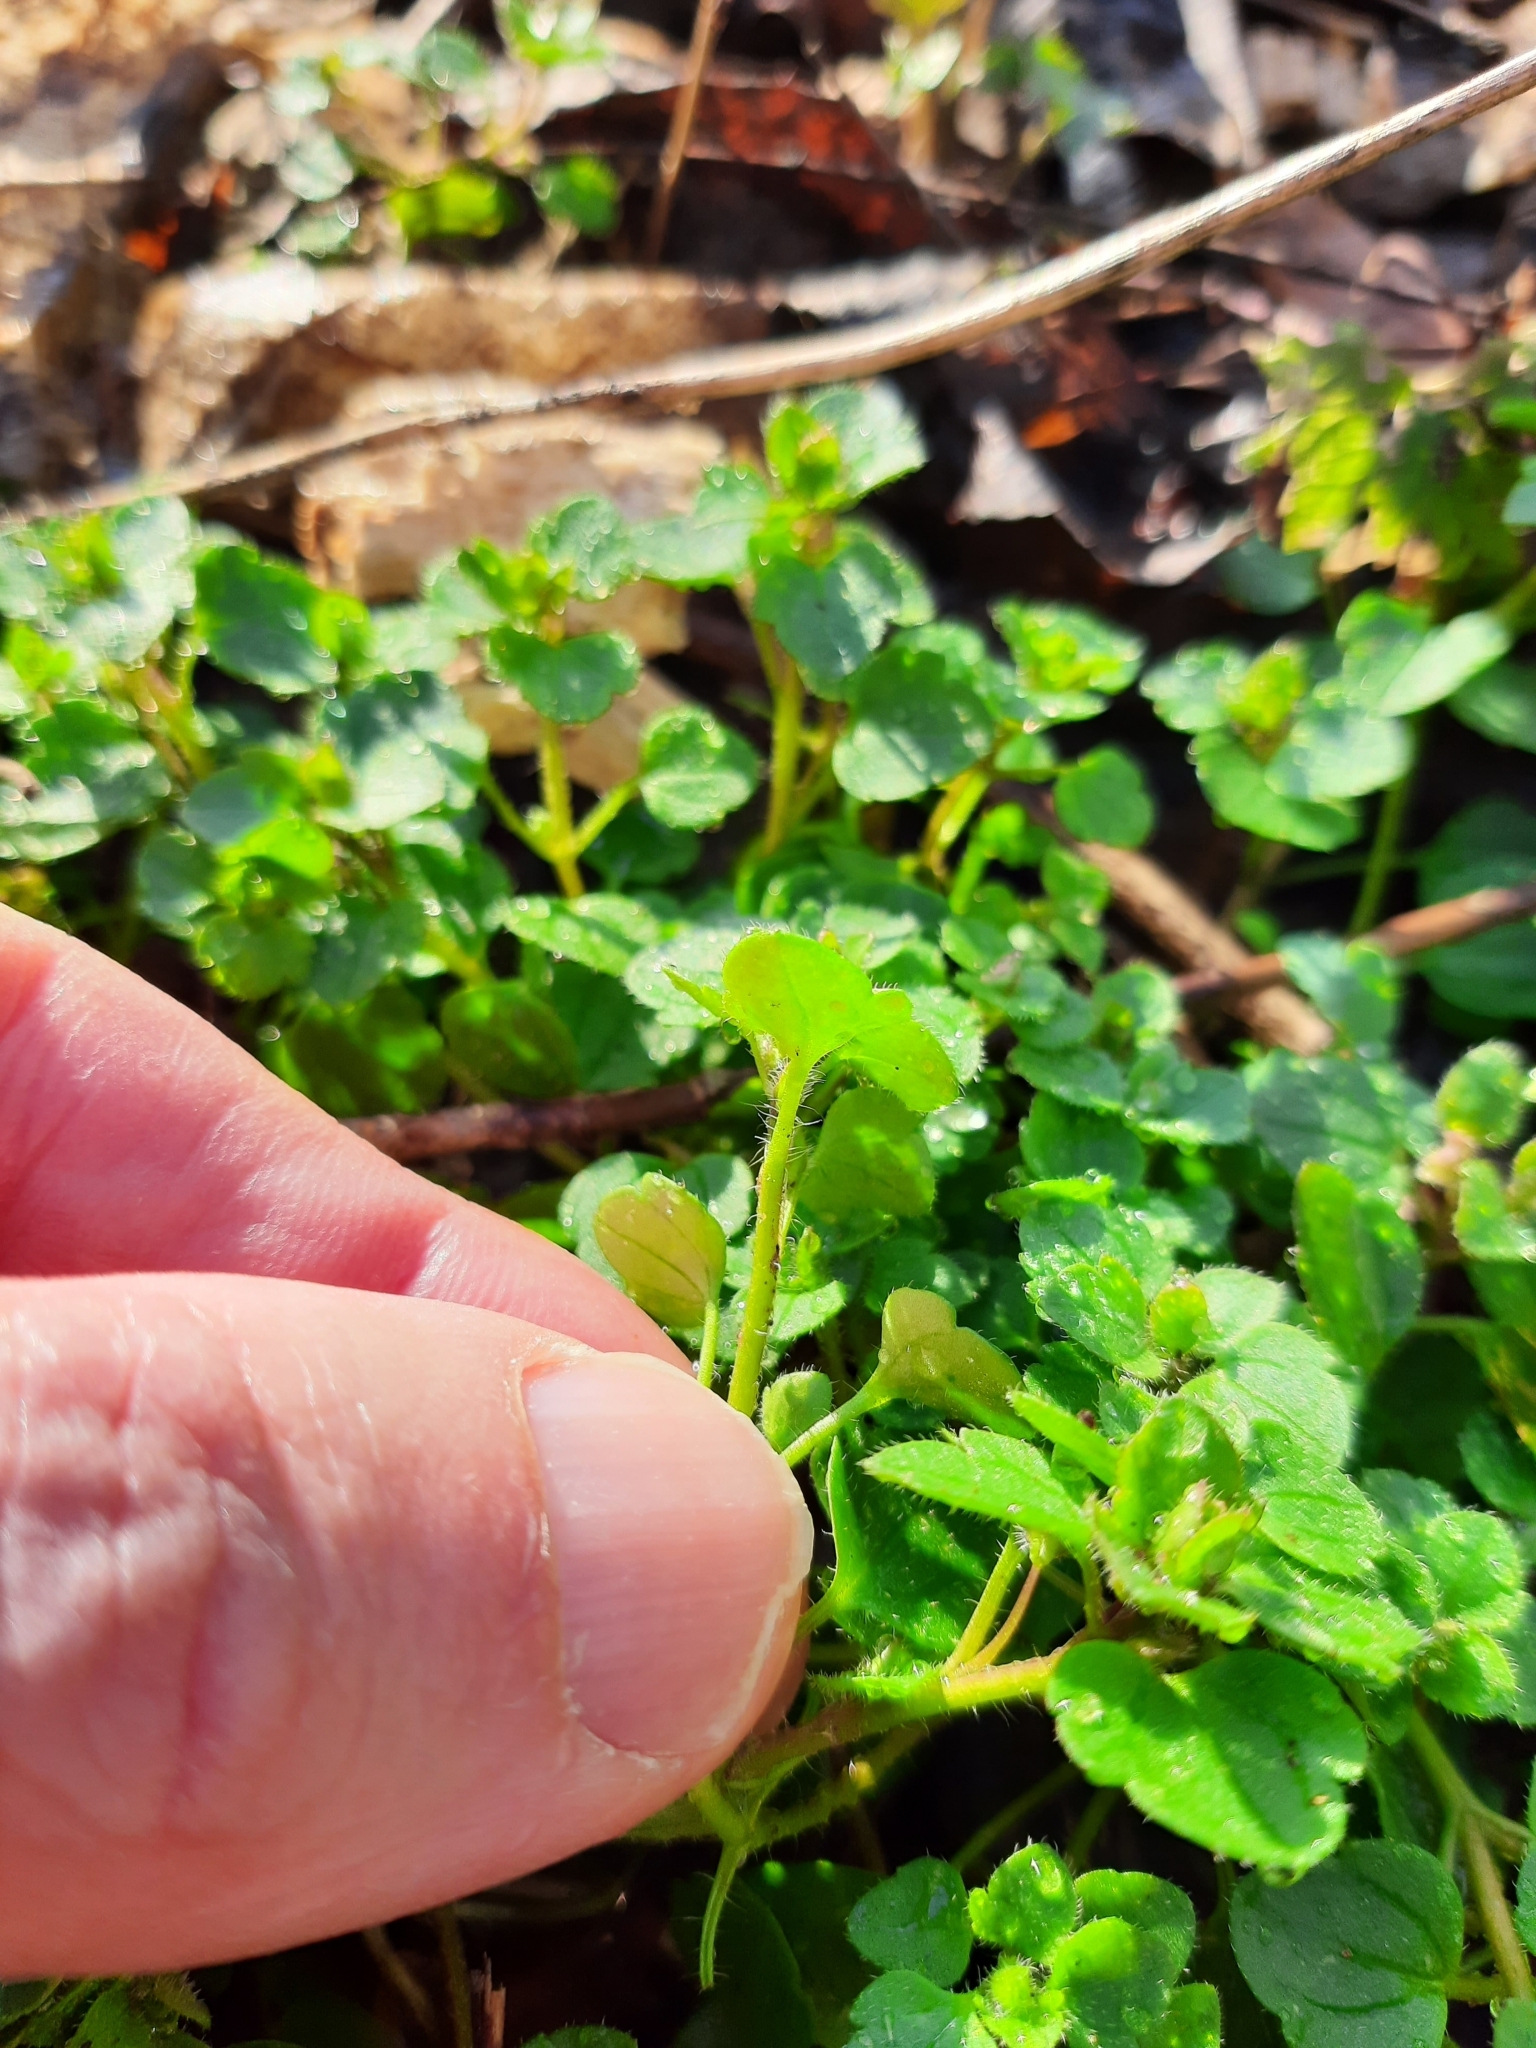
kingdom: Plantae
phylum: Tracheophyta
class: Magnoliopsida
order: Lamiales
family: Plantaginaceae
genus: Veronica
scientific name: Veronica
